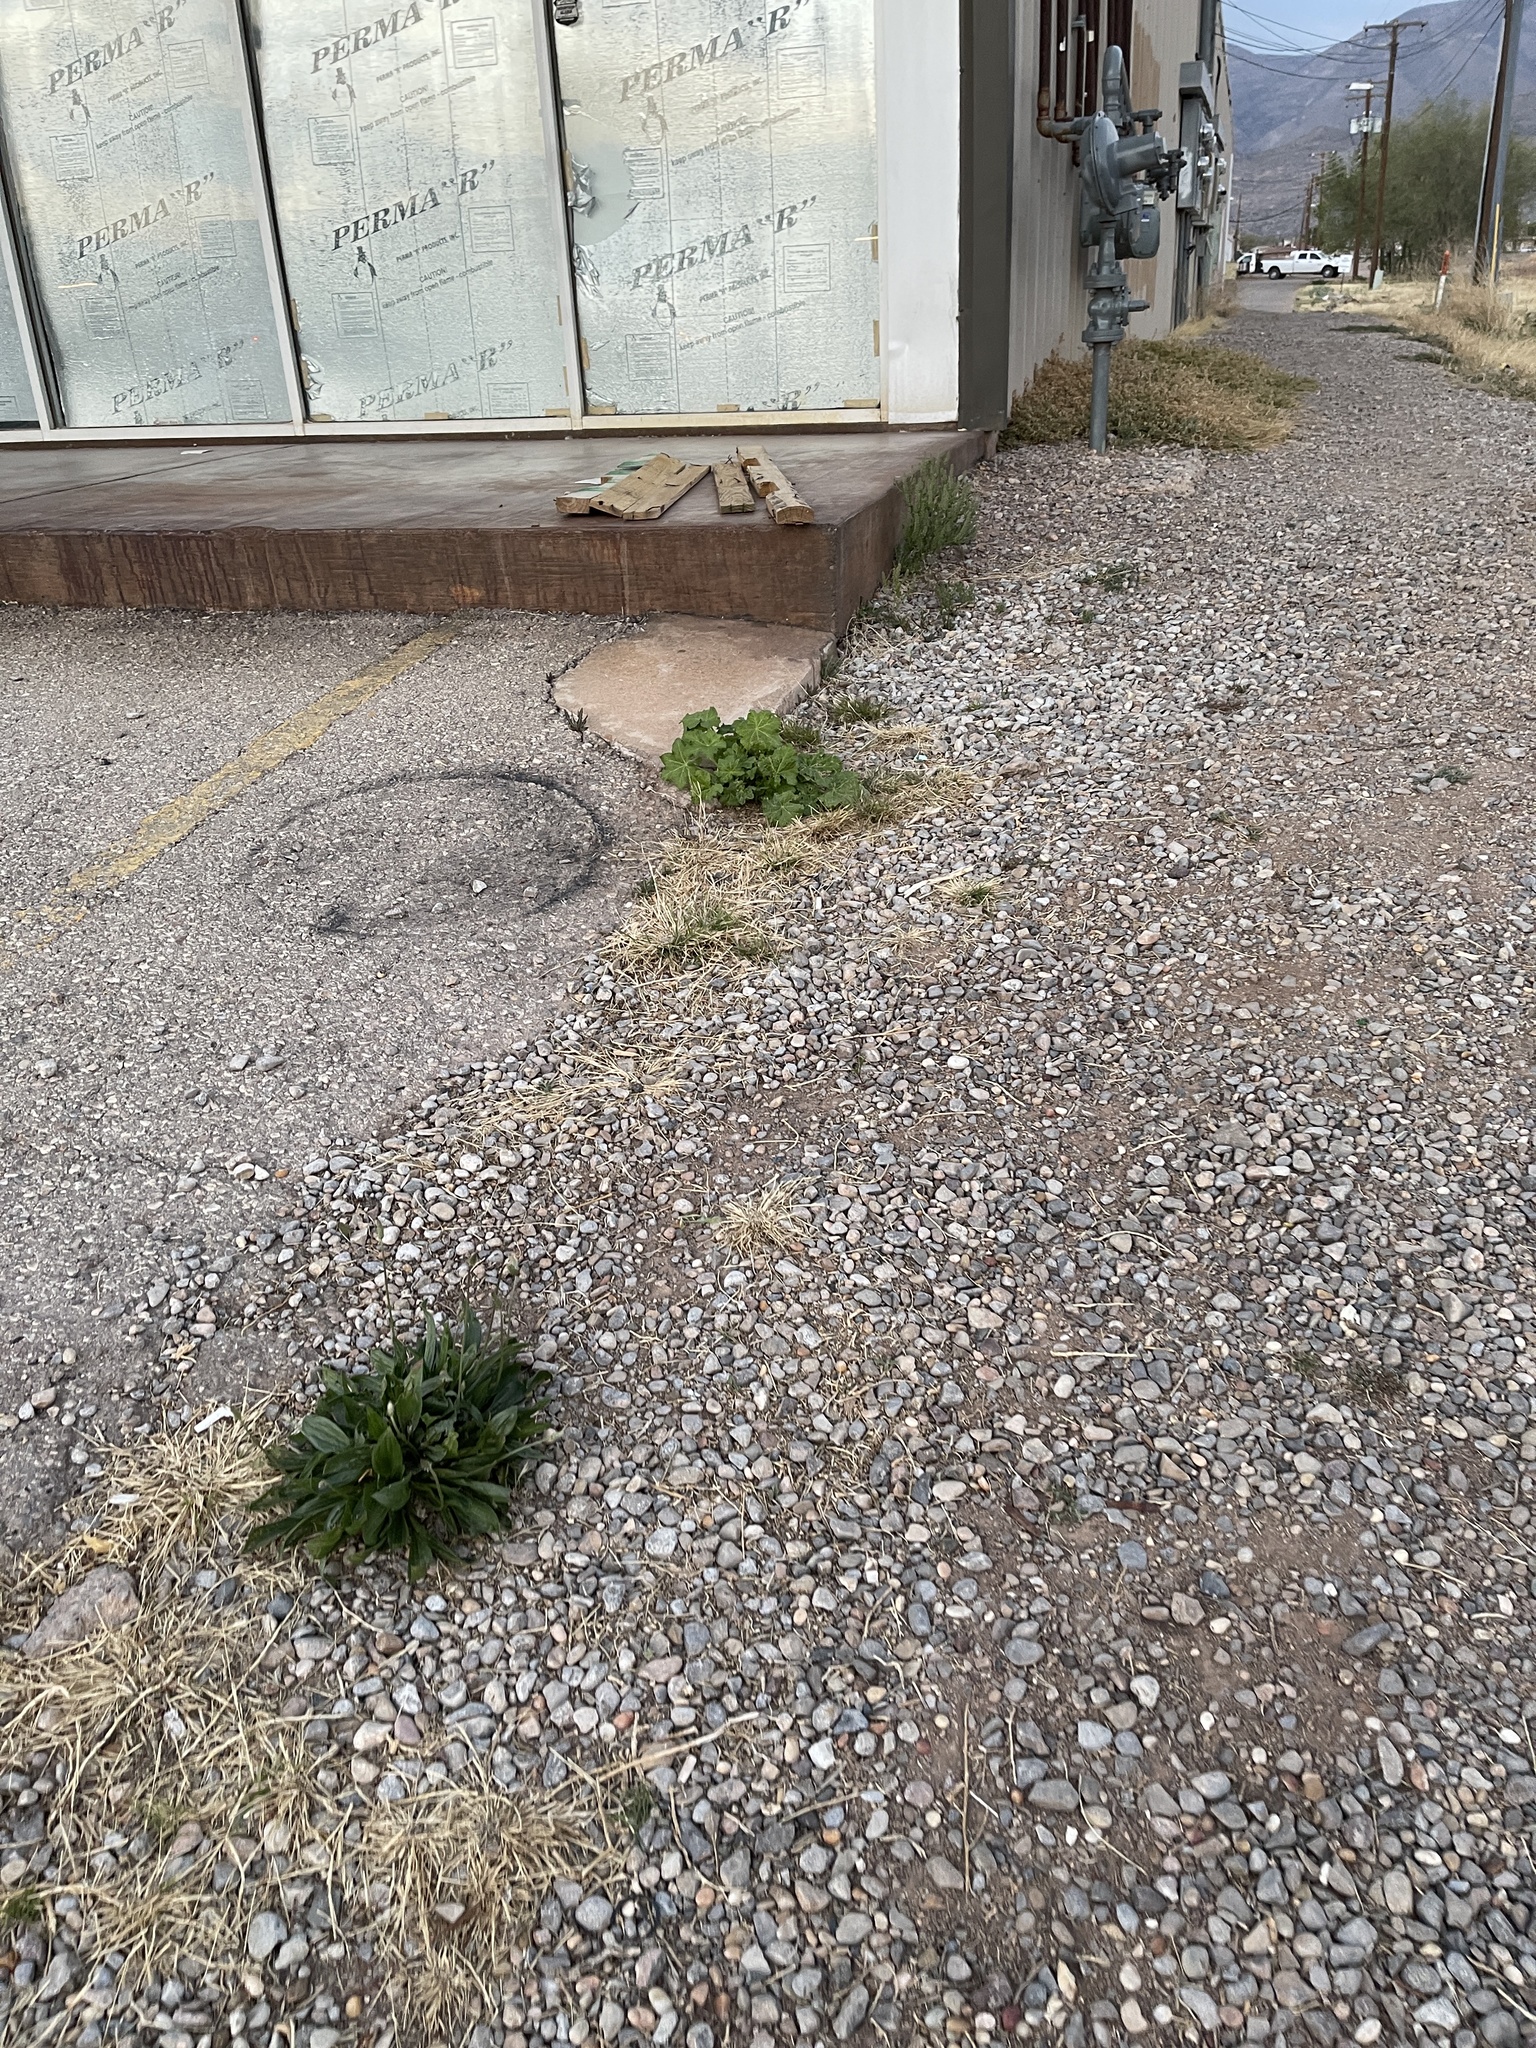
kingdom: Plantae
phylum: Tracheophyta
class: Magnoliopsida
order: Malvales
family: Malvaceae
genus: Alcea
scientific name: Alcea rosea
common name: Hollyhock
